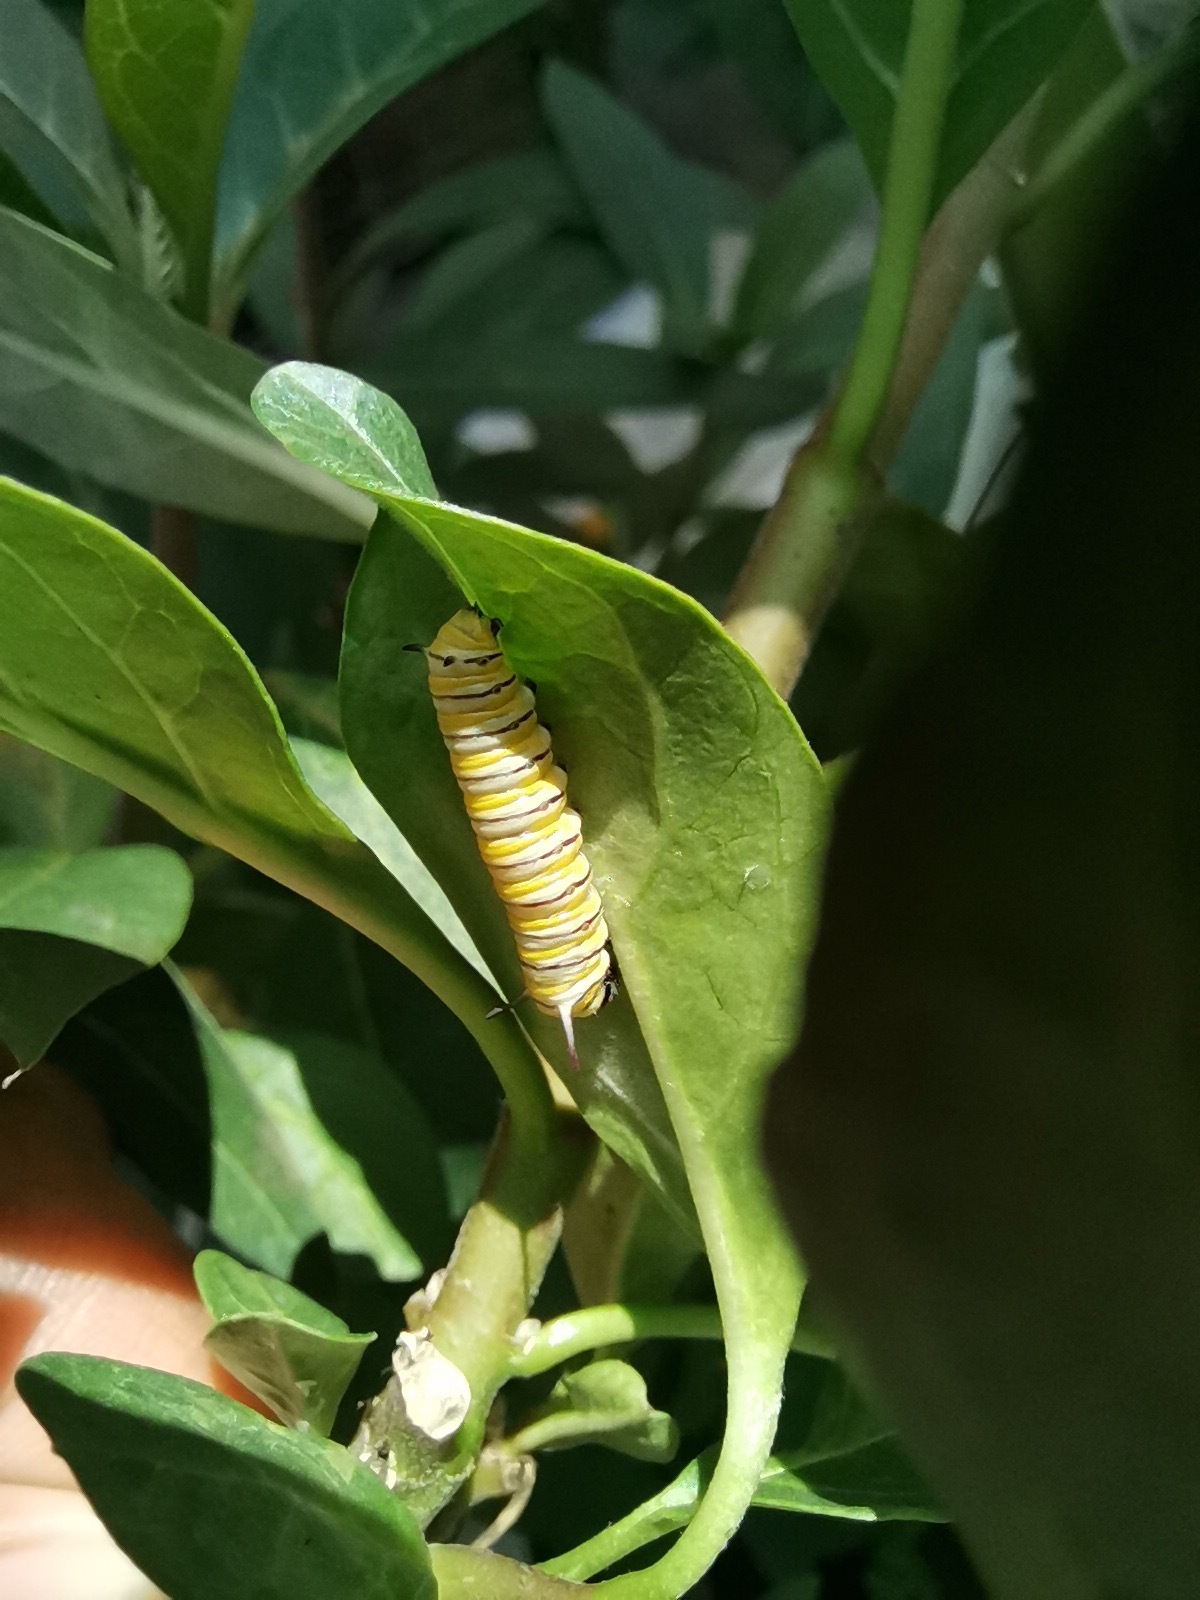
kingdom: Animalia
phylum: Arthropoda
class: Insecta
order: Lepidoptera
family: Nymphalidae
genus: Danaus
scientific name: Danaus plexippus
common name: Monarch
